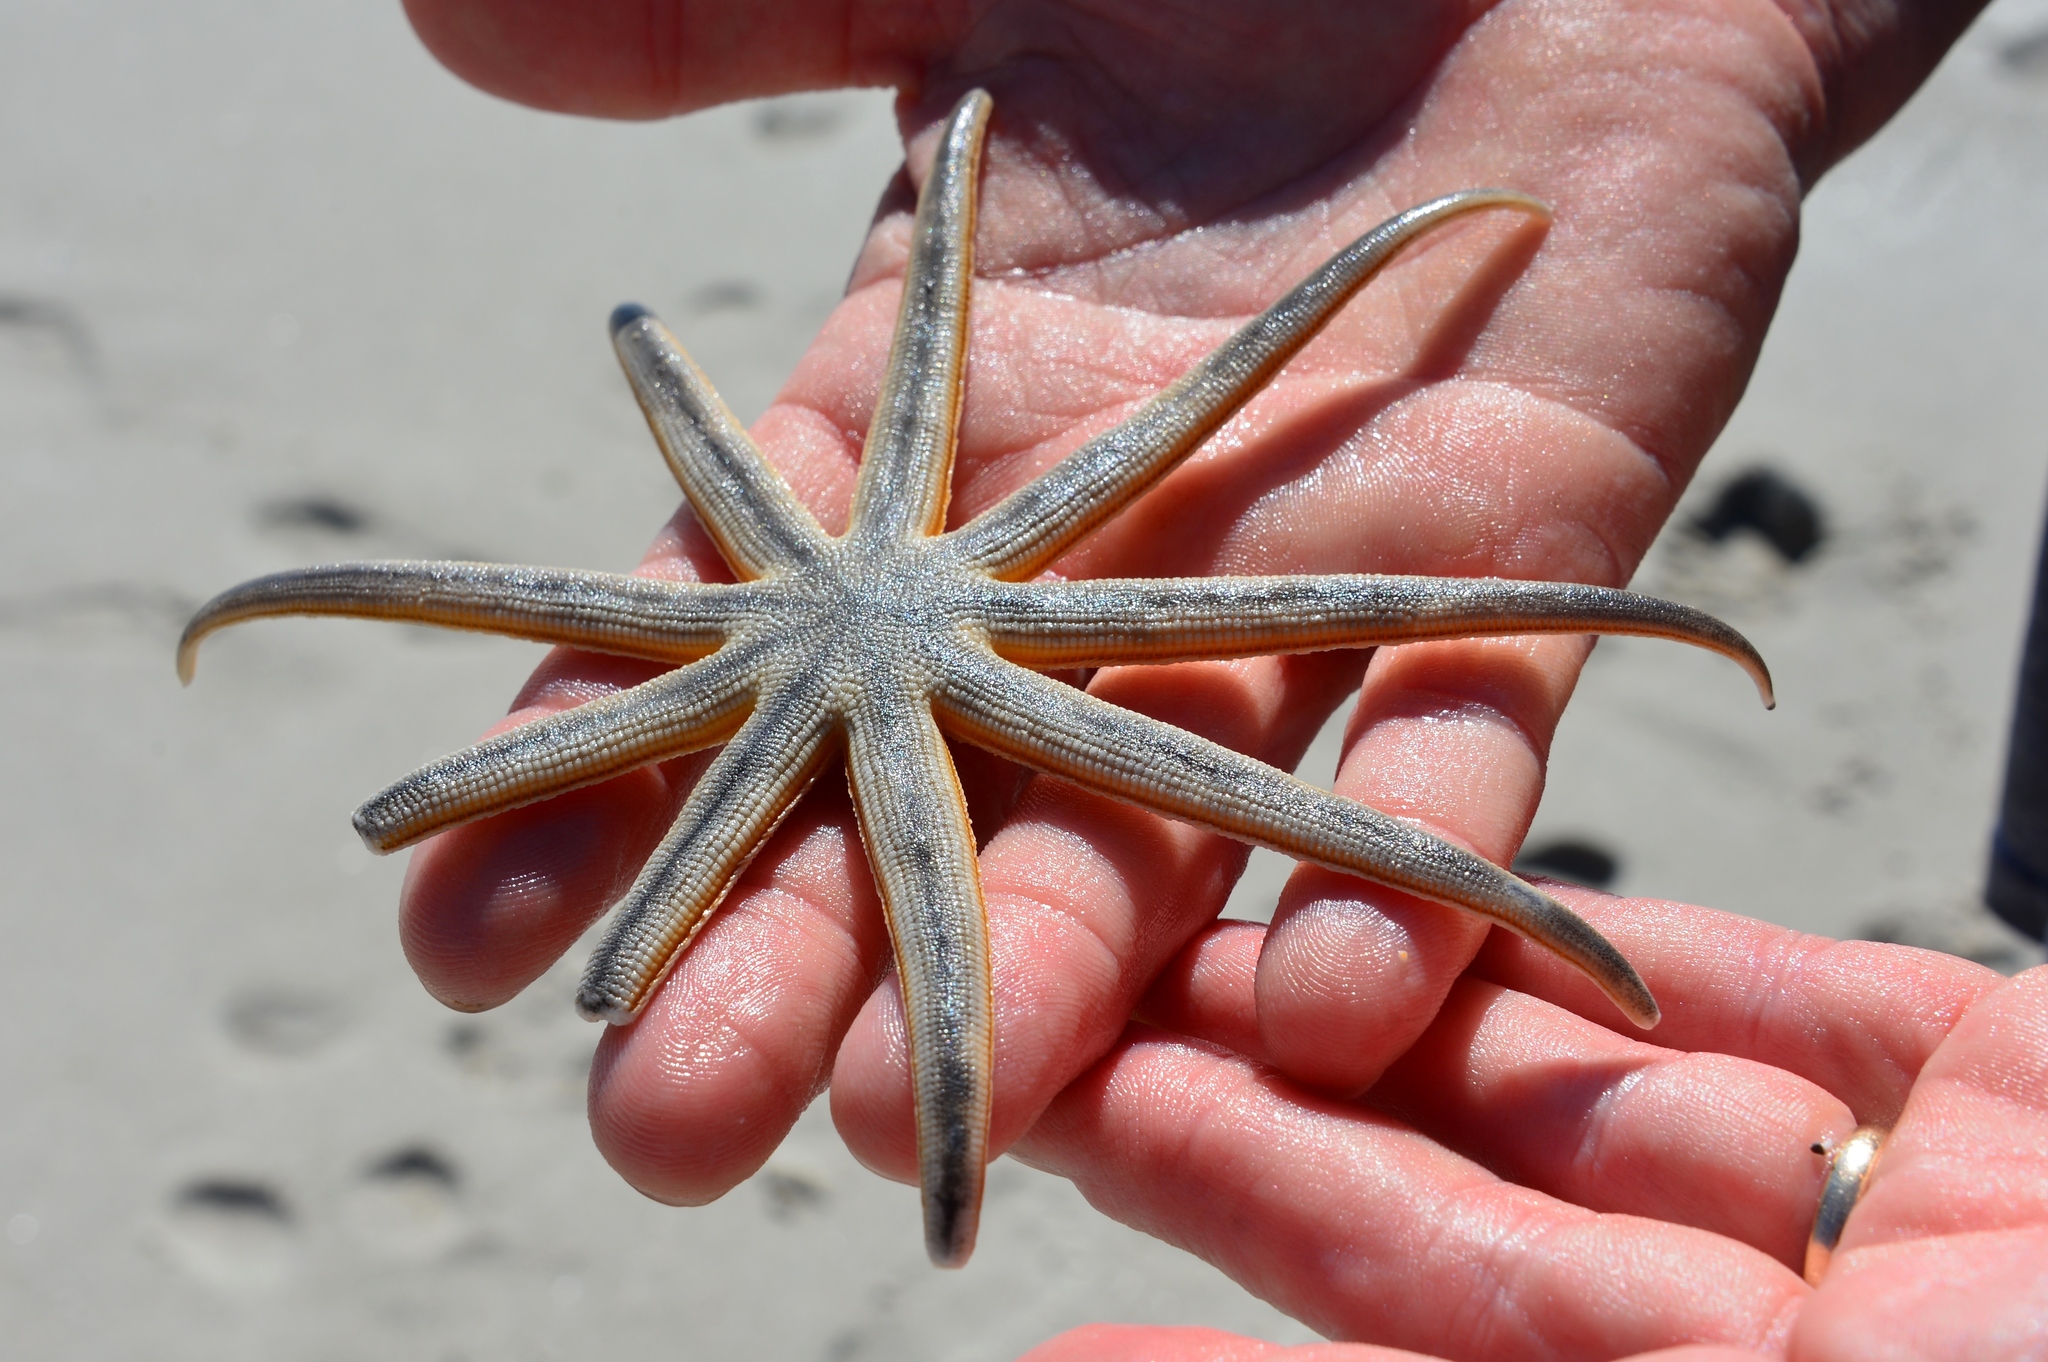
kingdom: Animalia
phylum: Echinodermata
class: Asteroidea
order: Paxillosida
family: Luidiidae
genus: Luidia
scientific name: Luidia senegalensis
